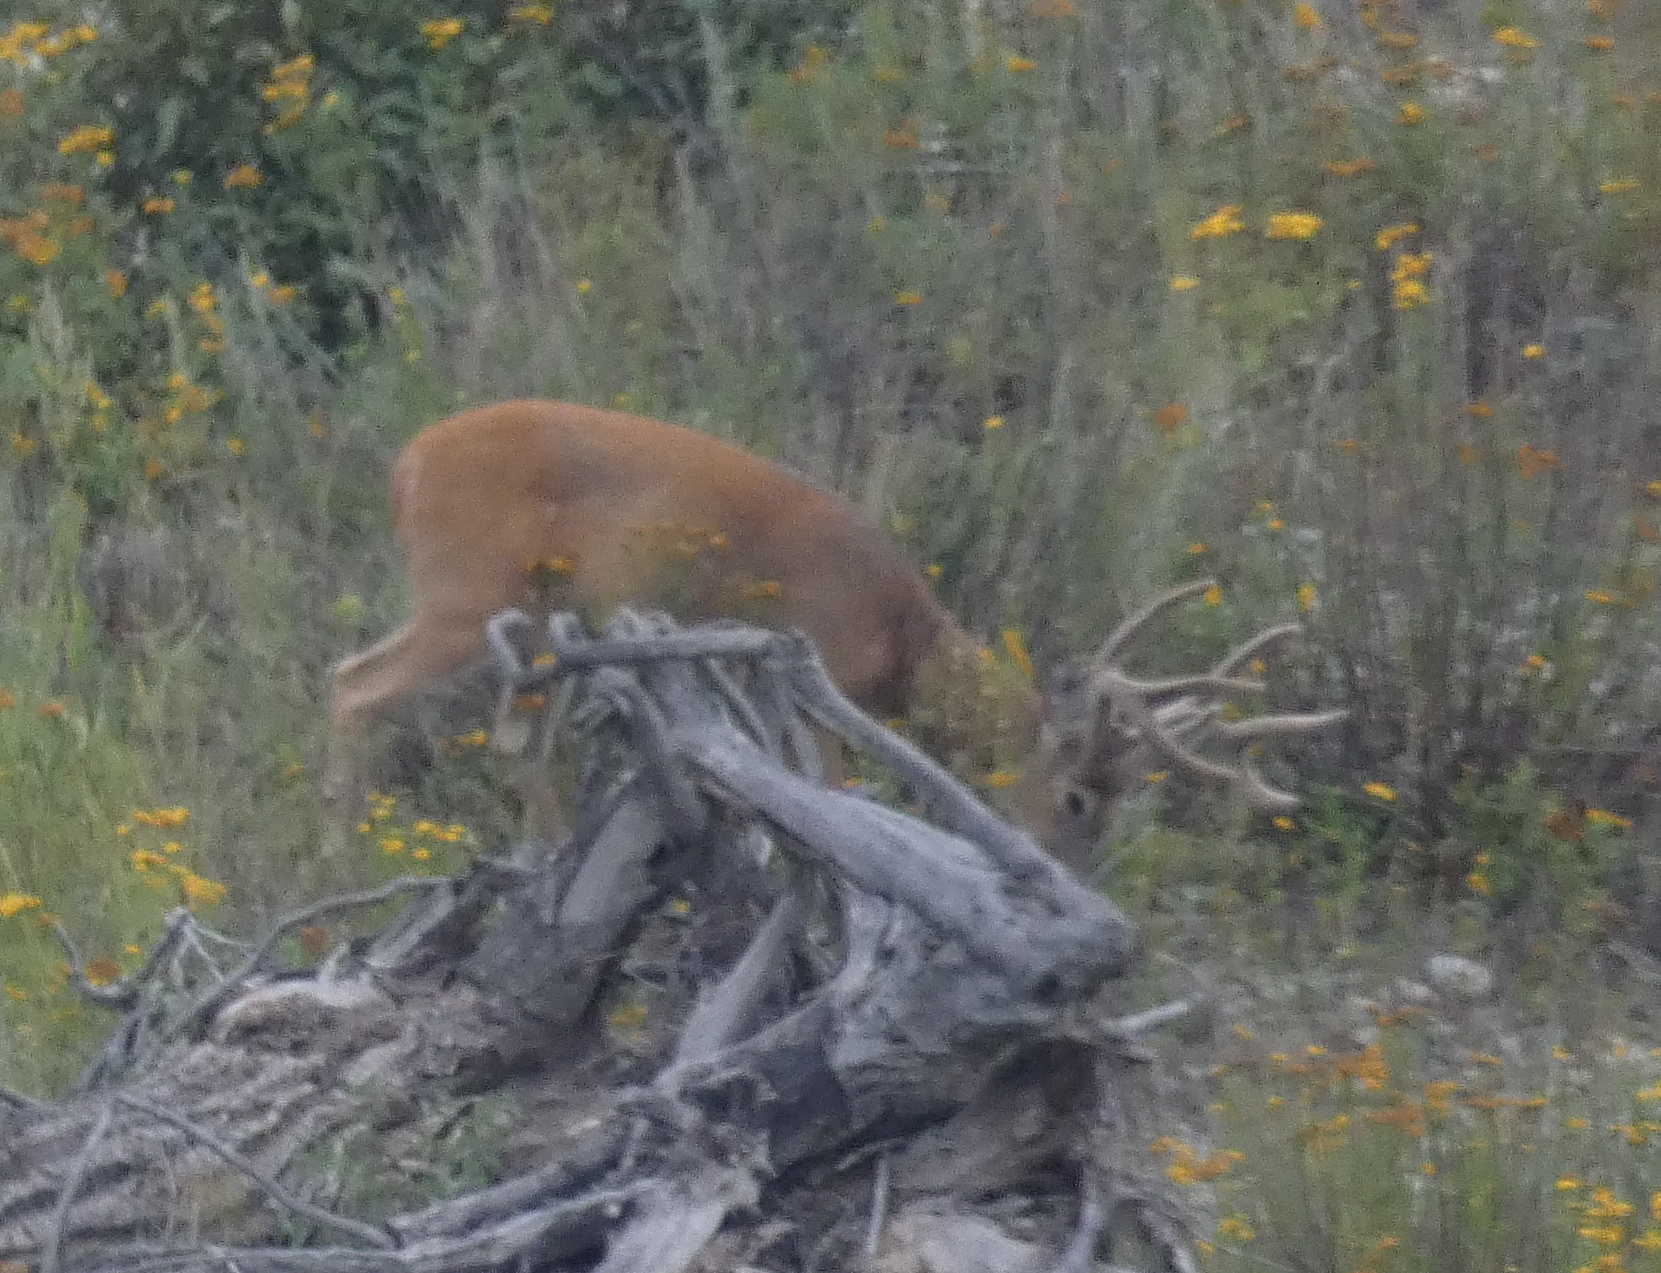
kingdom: Animalia
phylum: Chordata
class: Mammalia
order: Artiodactyla
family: Cervidae
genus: Odocoileus
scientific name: Odocoileus virginianus
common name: White-tailed deer
